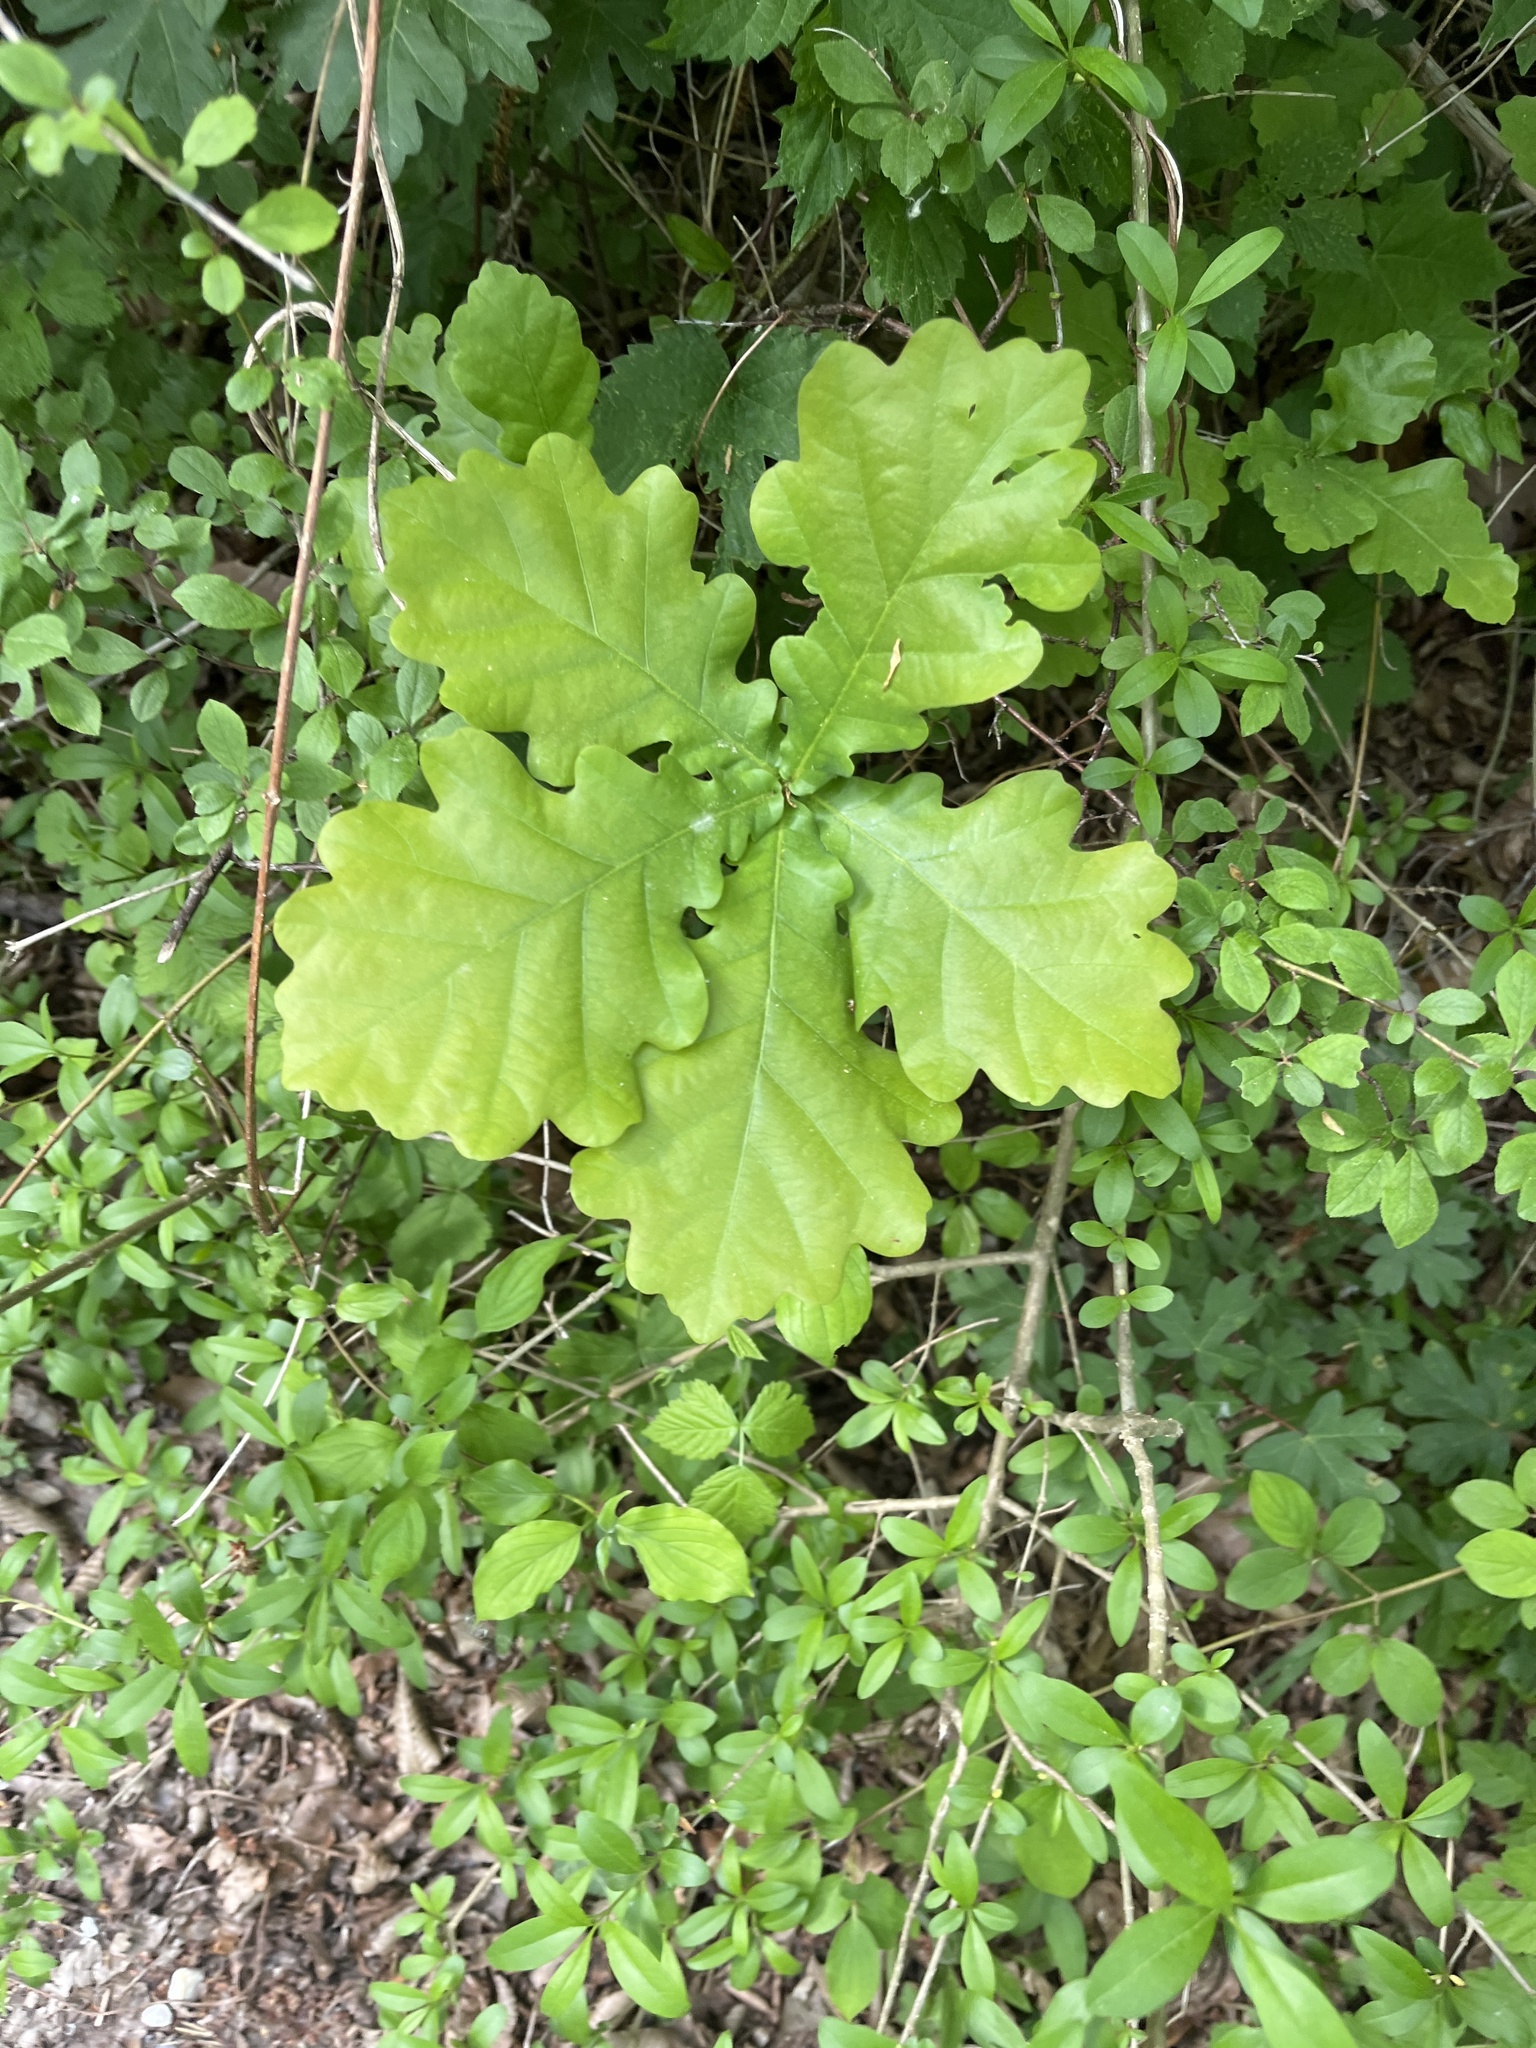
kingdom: Plantae
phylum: Tracheophyta
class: Magnoliopsida
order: Fagales
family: Fagaceae
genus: Quercus
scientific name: Quercus robur
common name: Pedunculate oak
